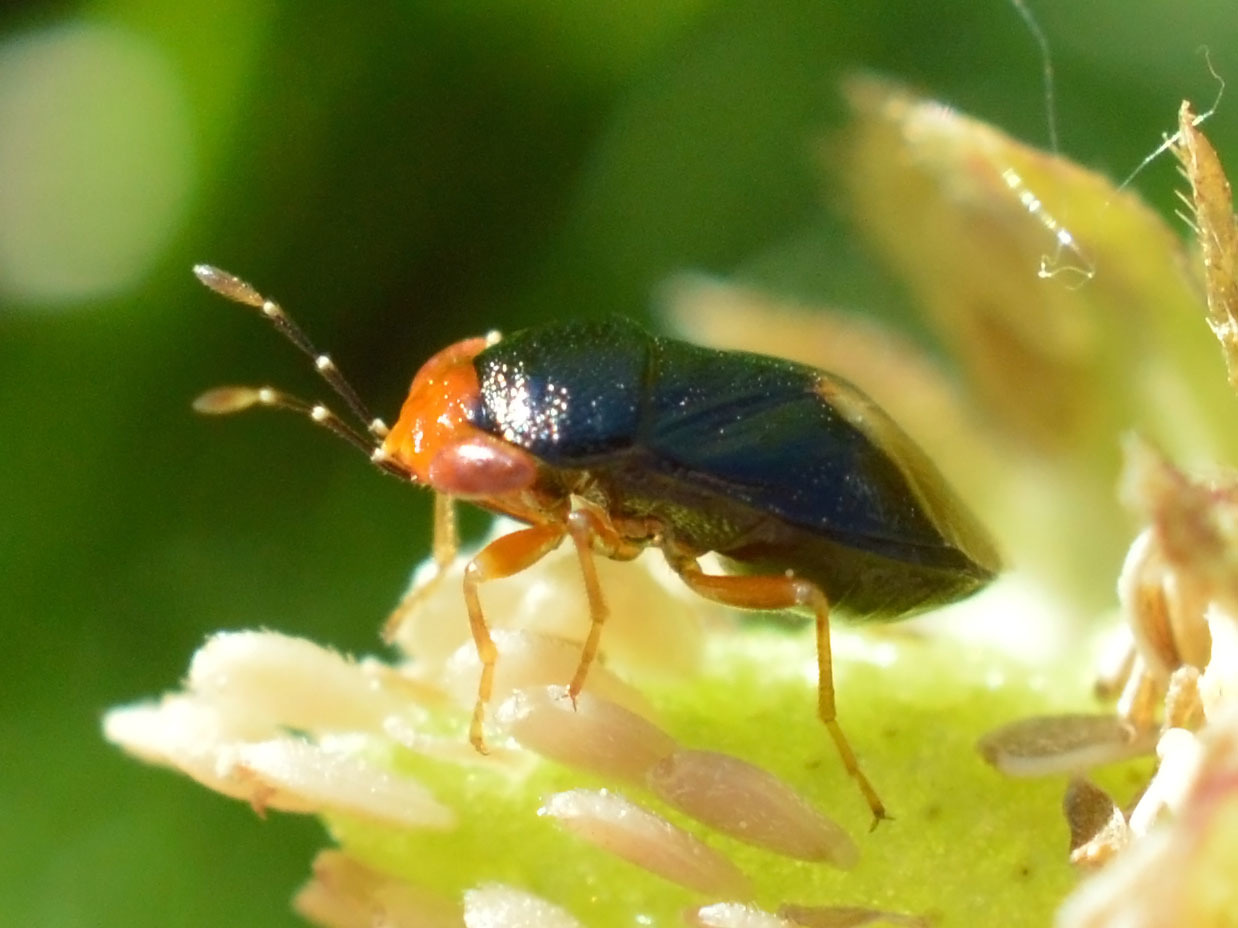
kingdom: Animalia
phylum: Arthropoda
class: Insecta
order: Hemiptera
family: Geocoridae
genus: Geocoris
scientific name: Geocoris erythrocephala
